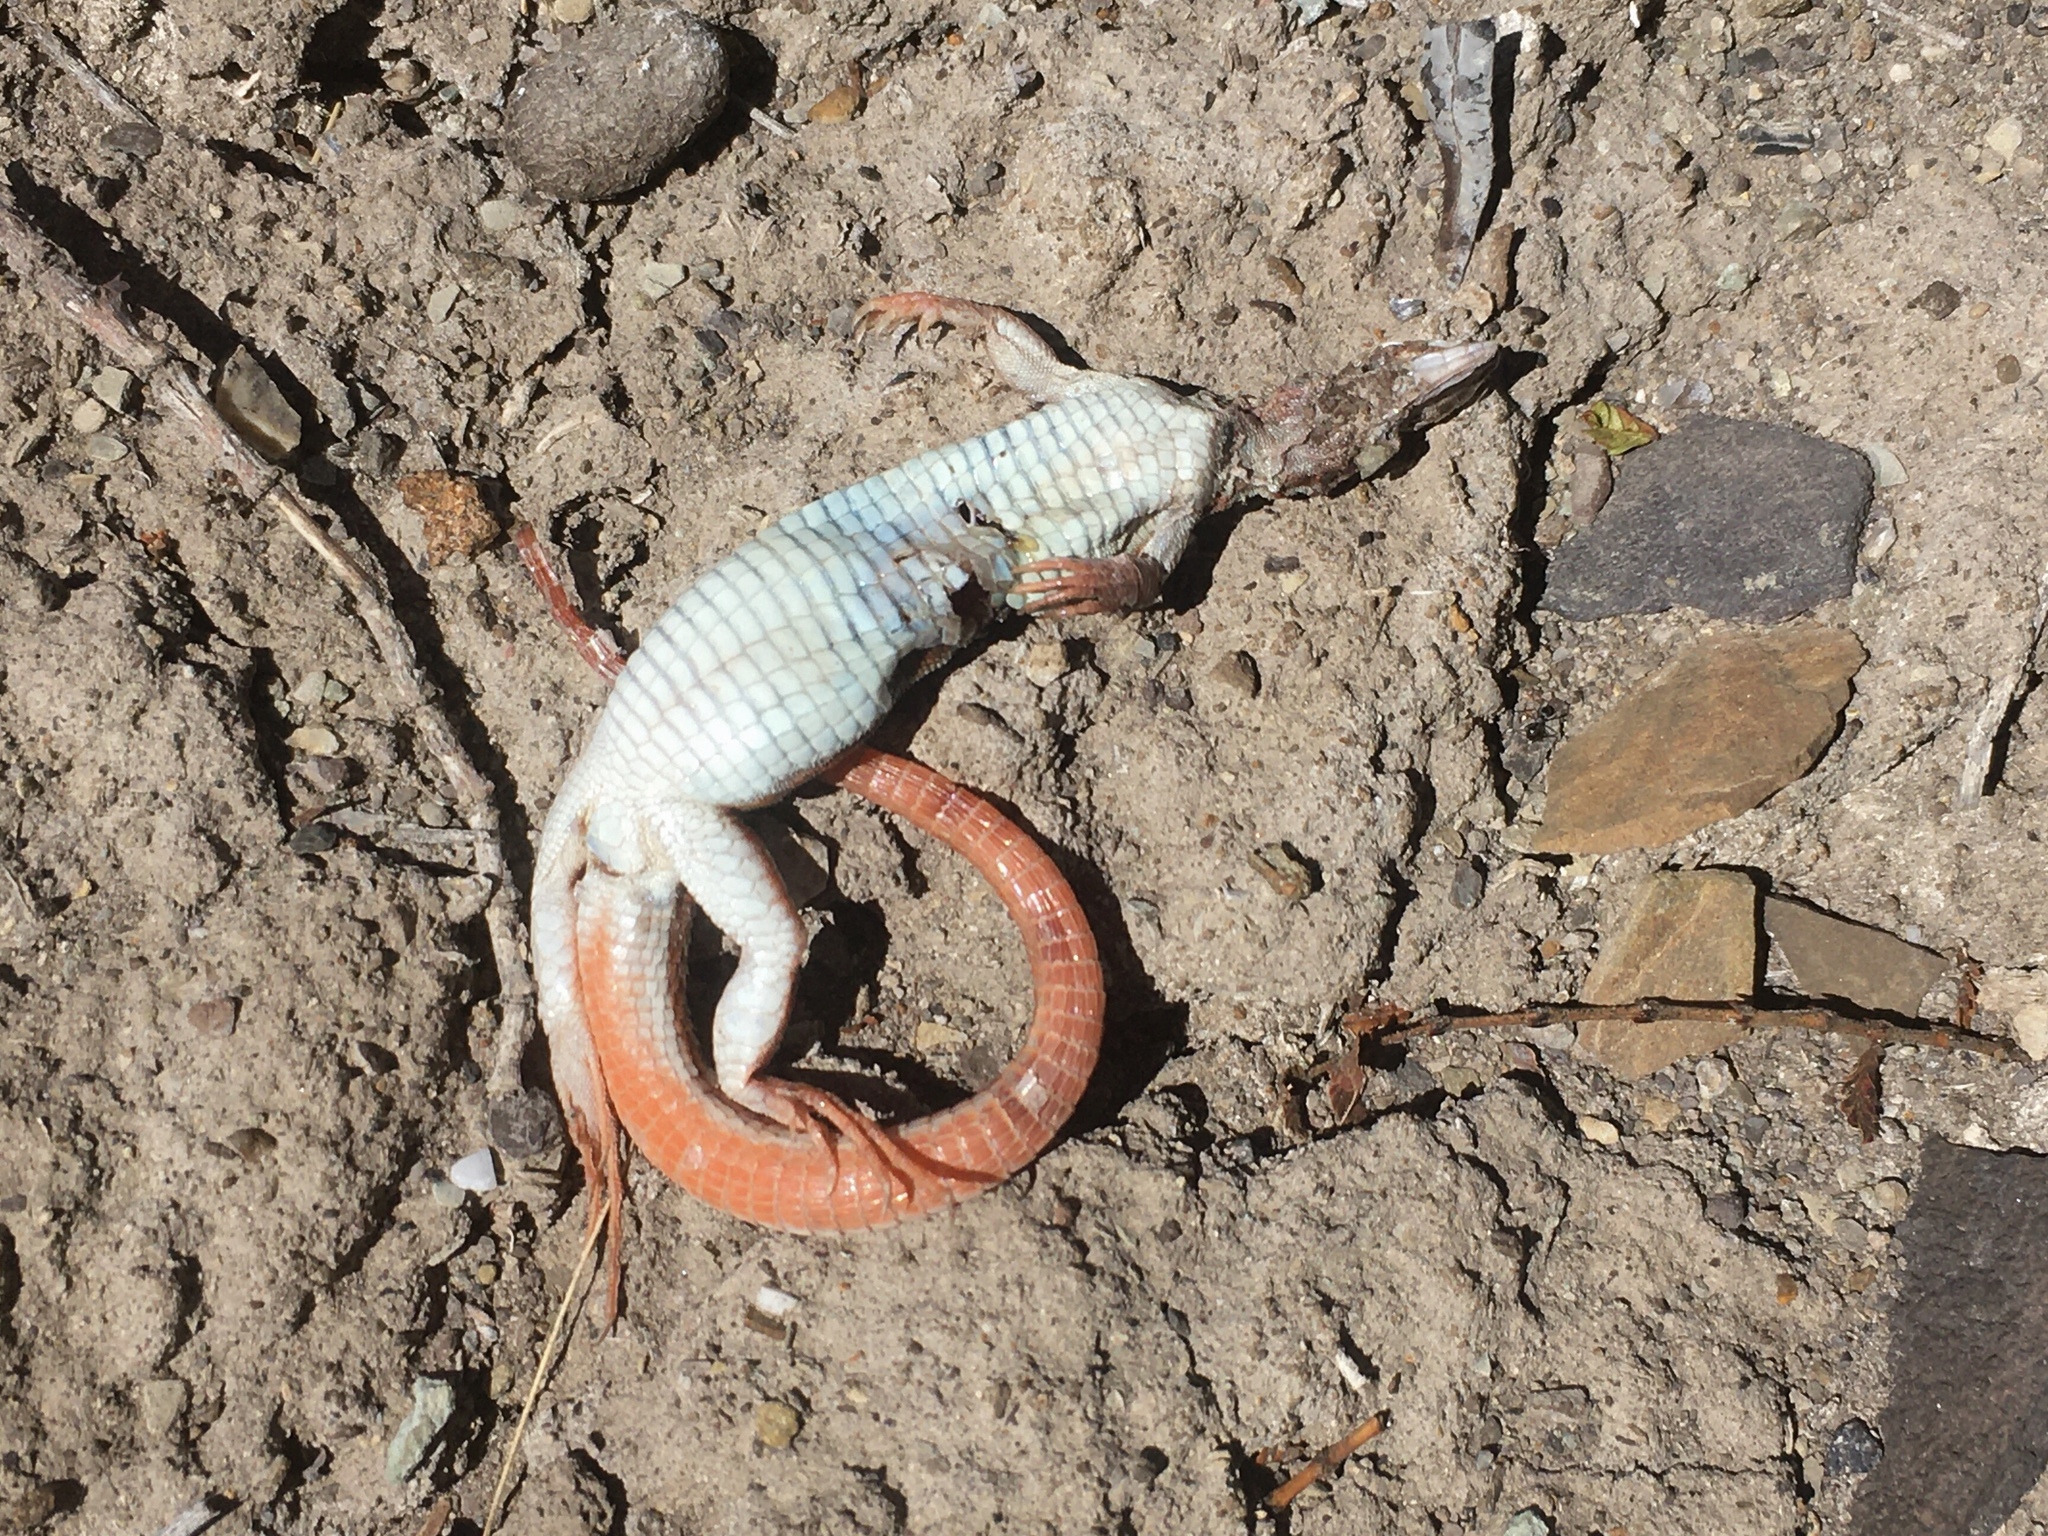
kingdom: Animalia
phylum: Chordata
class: Squamata
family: Teiidae
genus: Aurivela
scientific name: Aurivela longicauda
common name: Longtail whiptail
